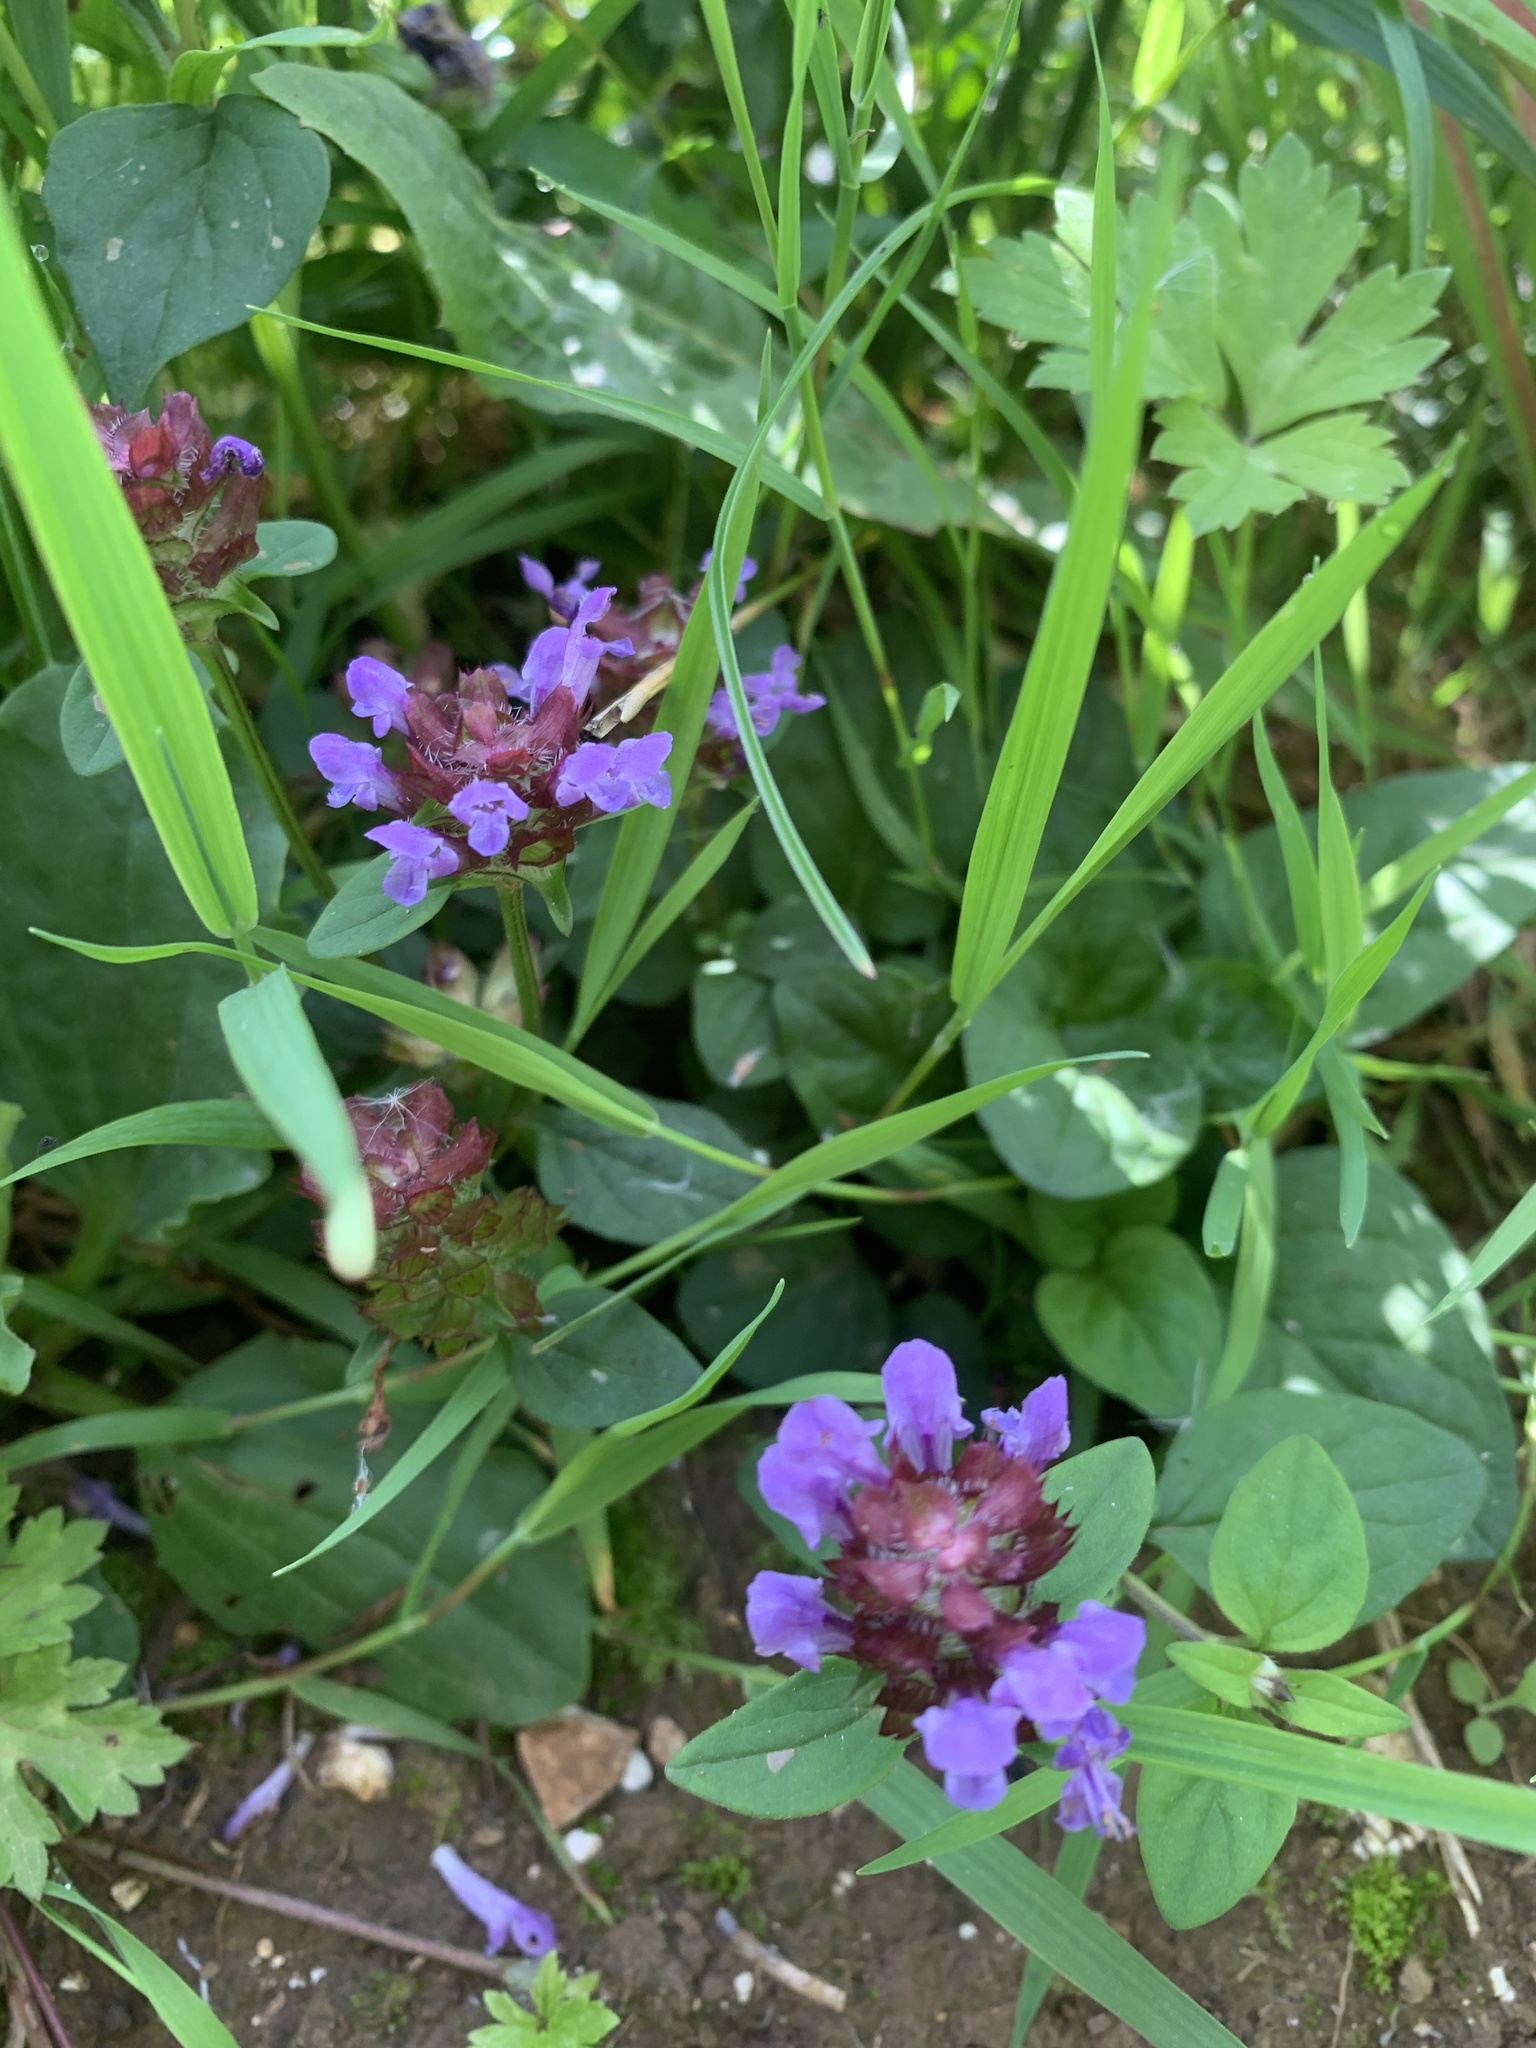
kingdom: Plantae
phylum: Tracheophyta
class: Magnoliopsida
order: Lamiales
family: Lamiaceae
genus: Prunella
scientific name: Prunella vulgaris
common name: Heal-all
